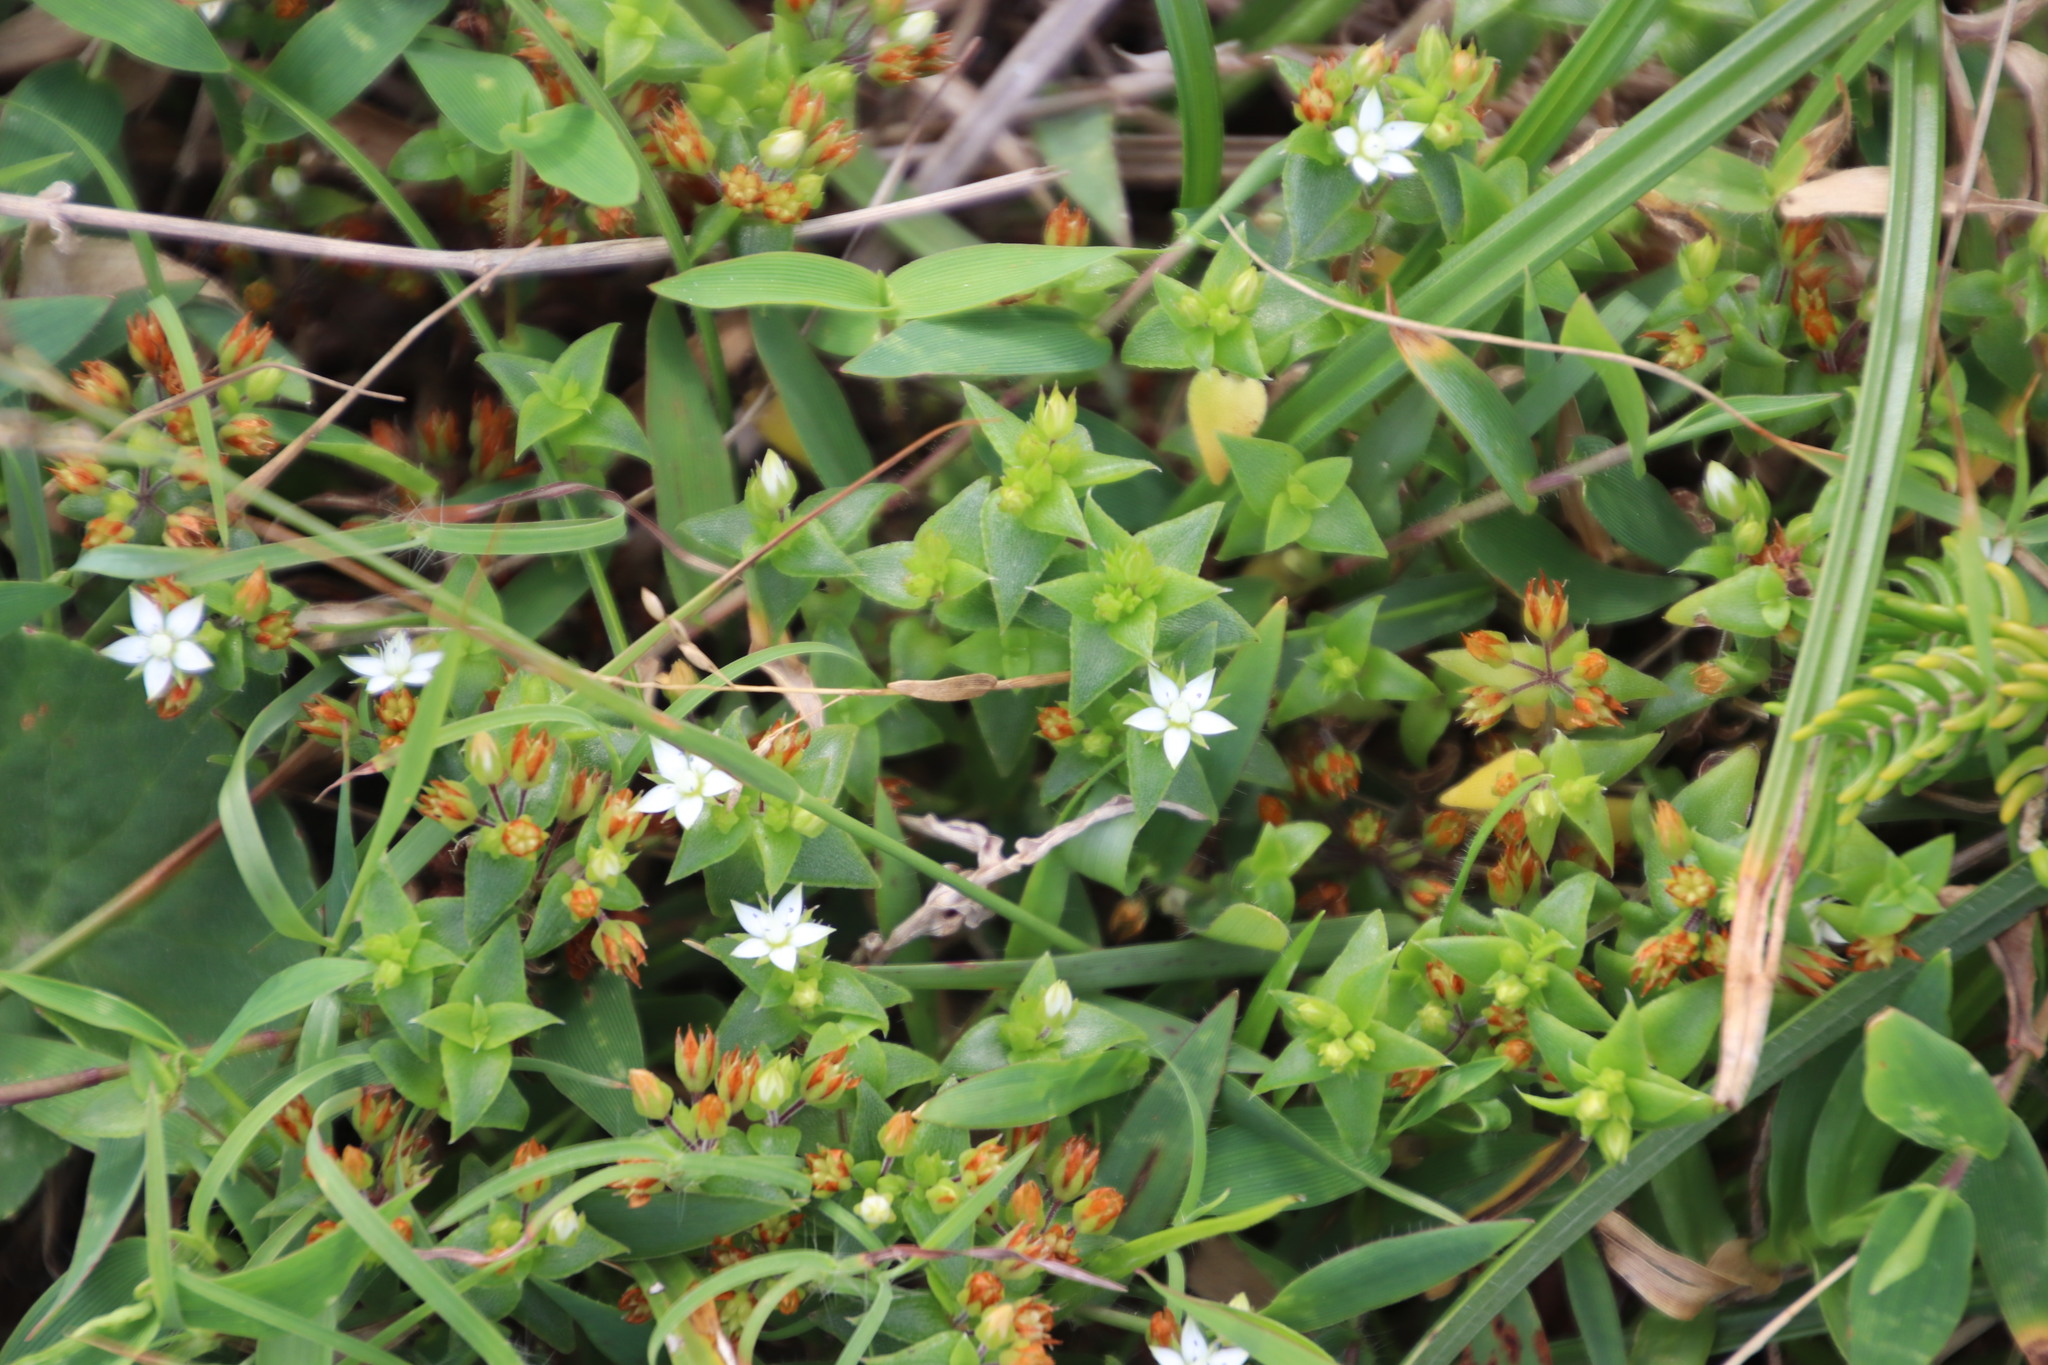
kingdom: Plantae
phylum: Tracheophyta
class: Magnoliopsida
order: Saxifragales
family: Crassulaceae
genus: Crassula
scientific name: Crassula pellucida
